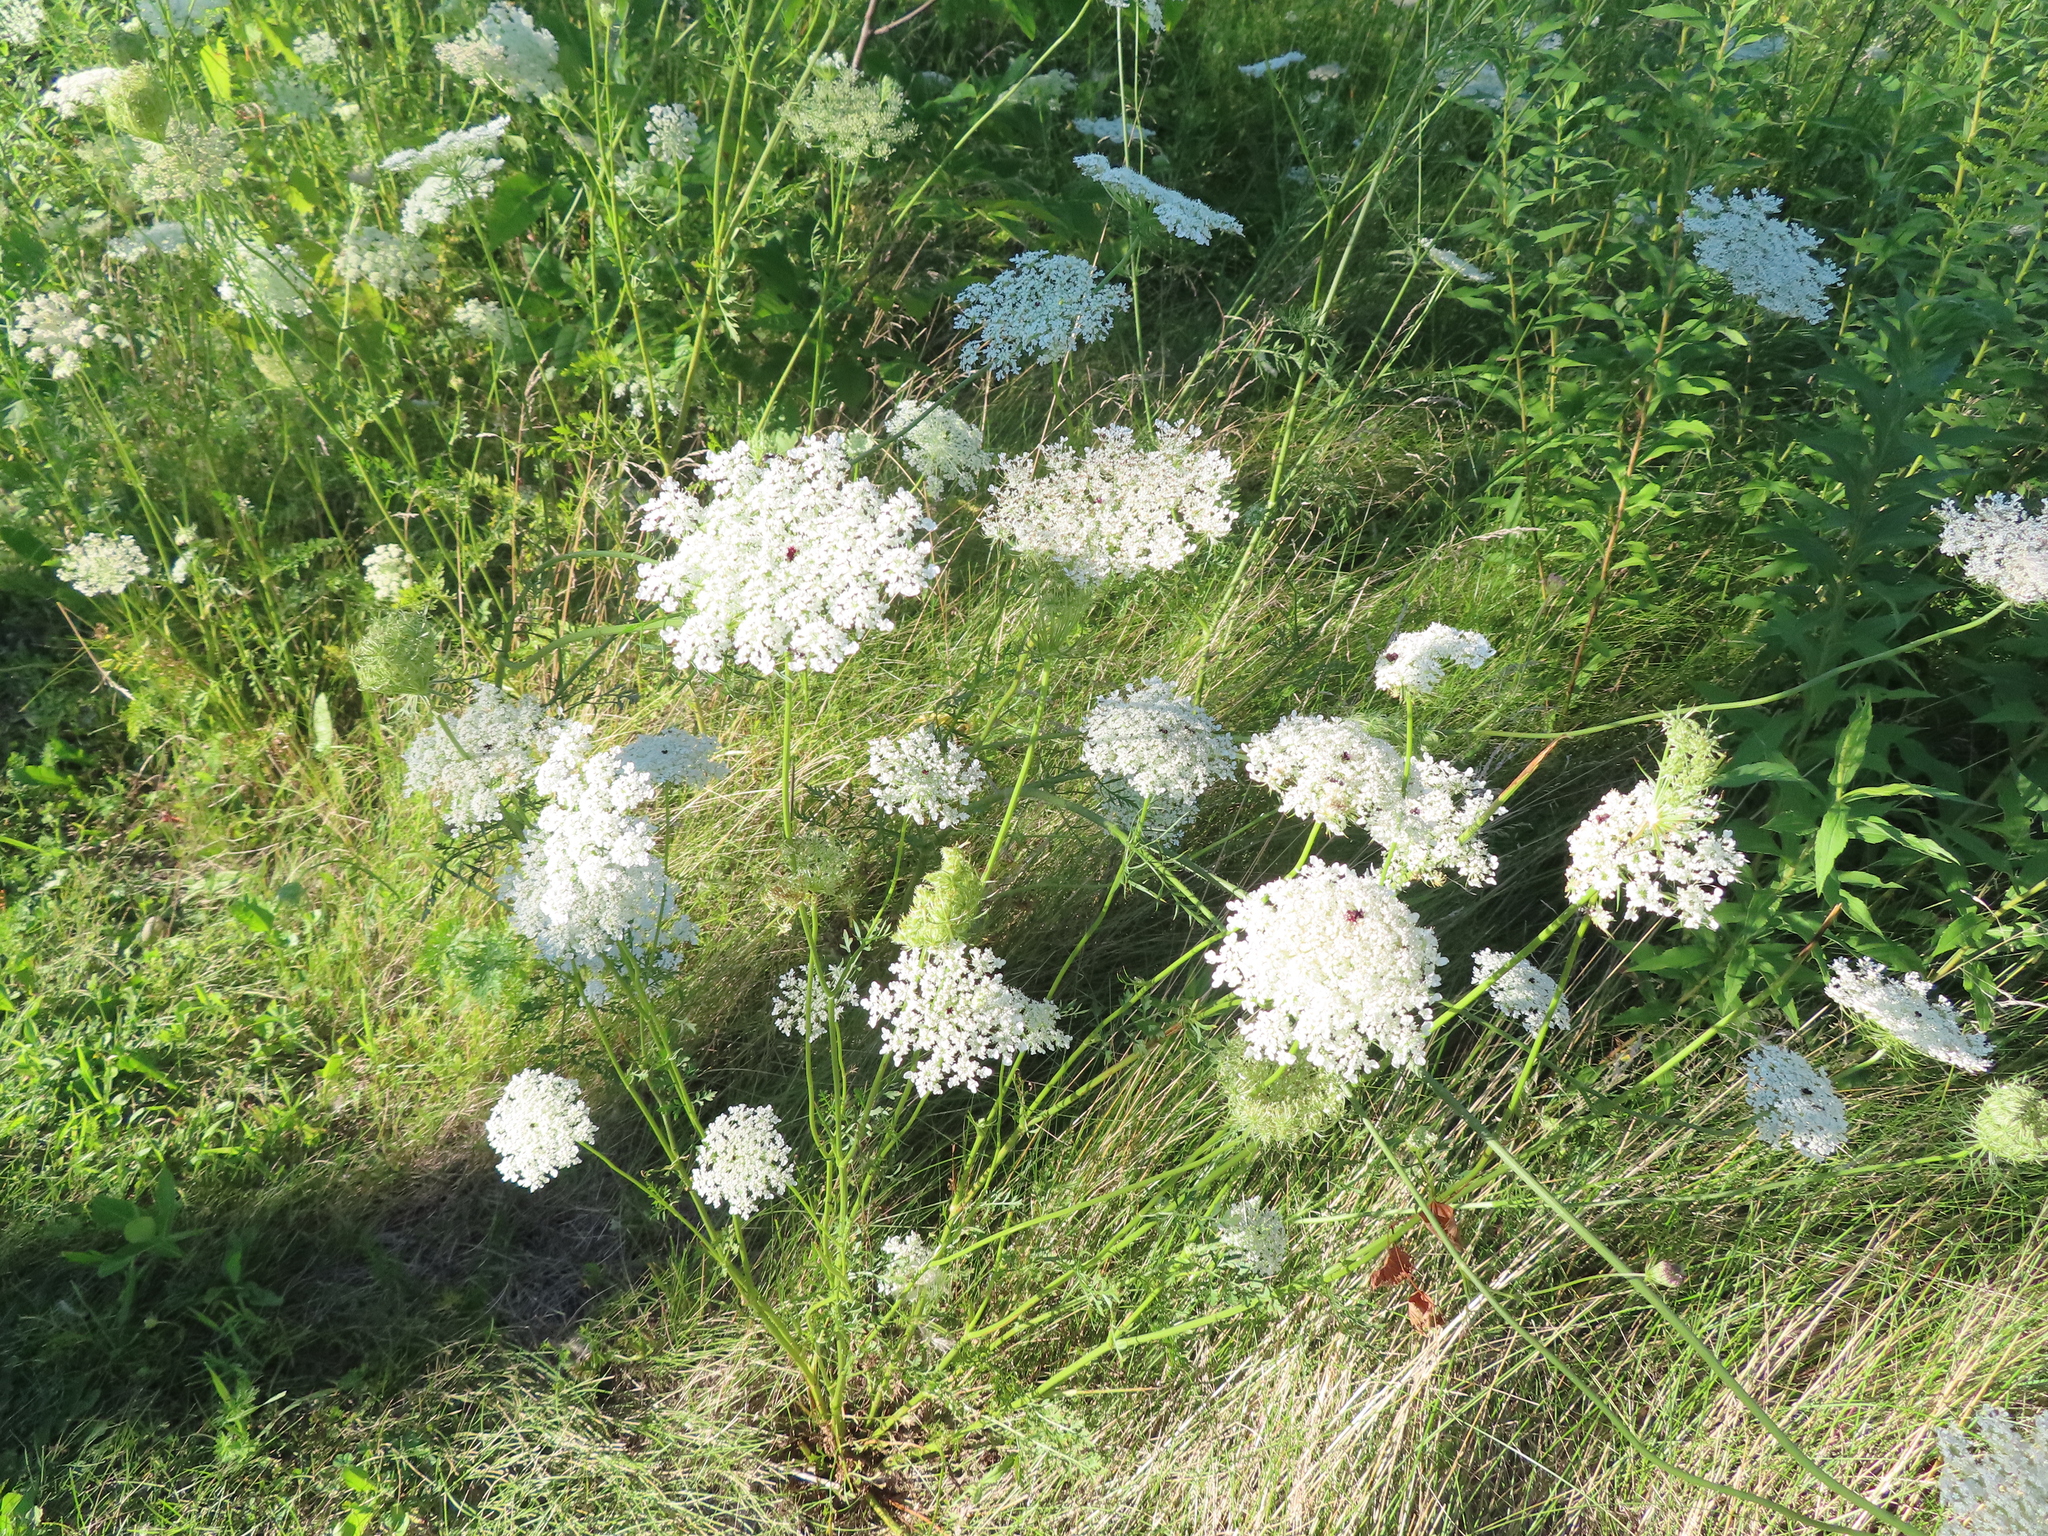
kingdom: Plantae
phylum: Tracheophyta
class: Magnoliopsida
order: Apiales
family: Apiaceae
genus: Daucus
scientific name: Daucus carota
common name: Wild carrot
